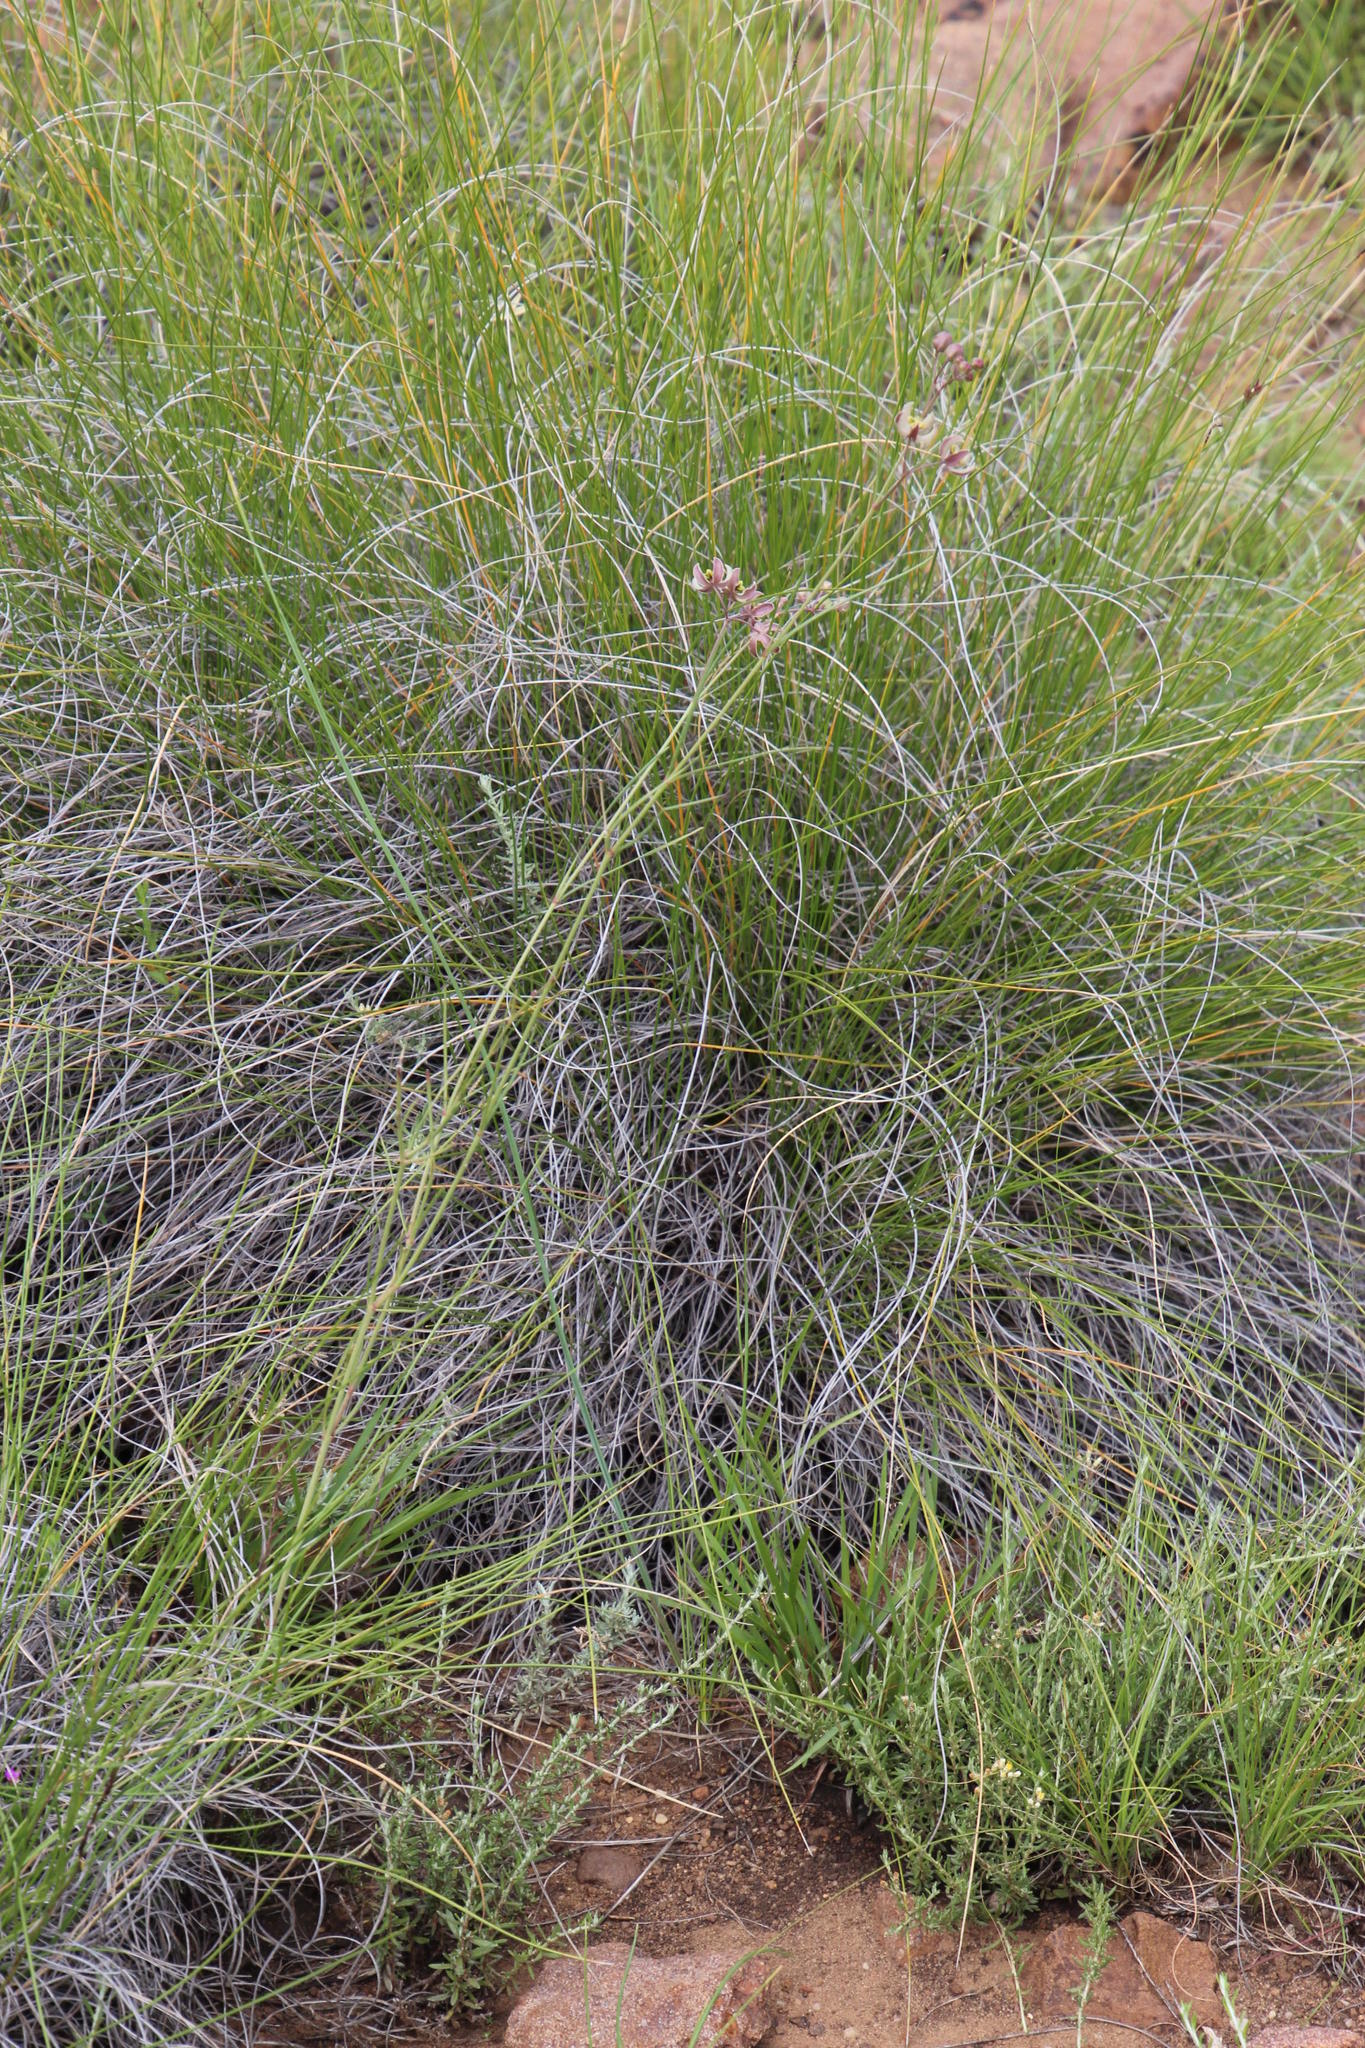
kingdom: Plantae
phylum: Tracheophyta
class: Magnoliopsida
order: Gentianales
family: Apocynaceae
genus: Schizoglossum
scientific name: Schizoglossum linifolium
